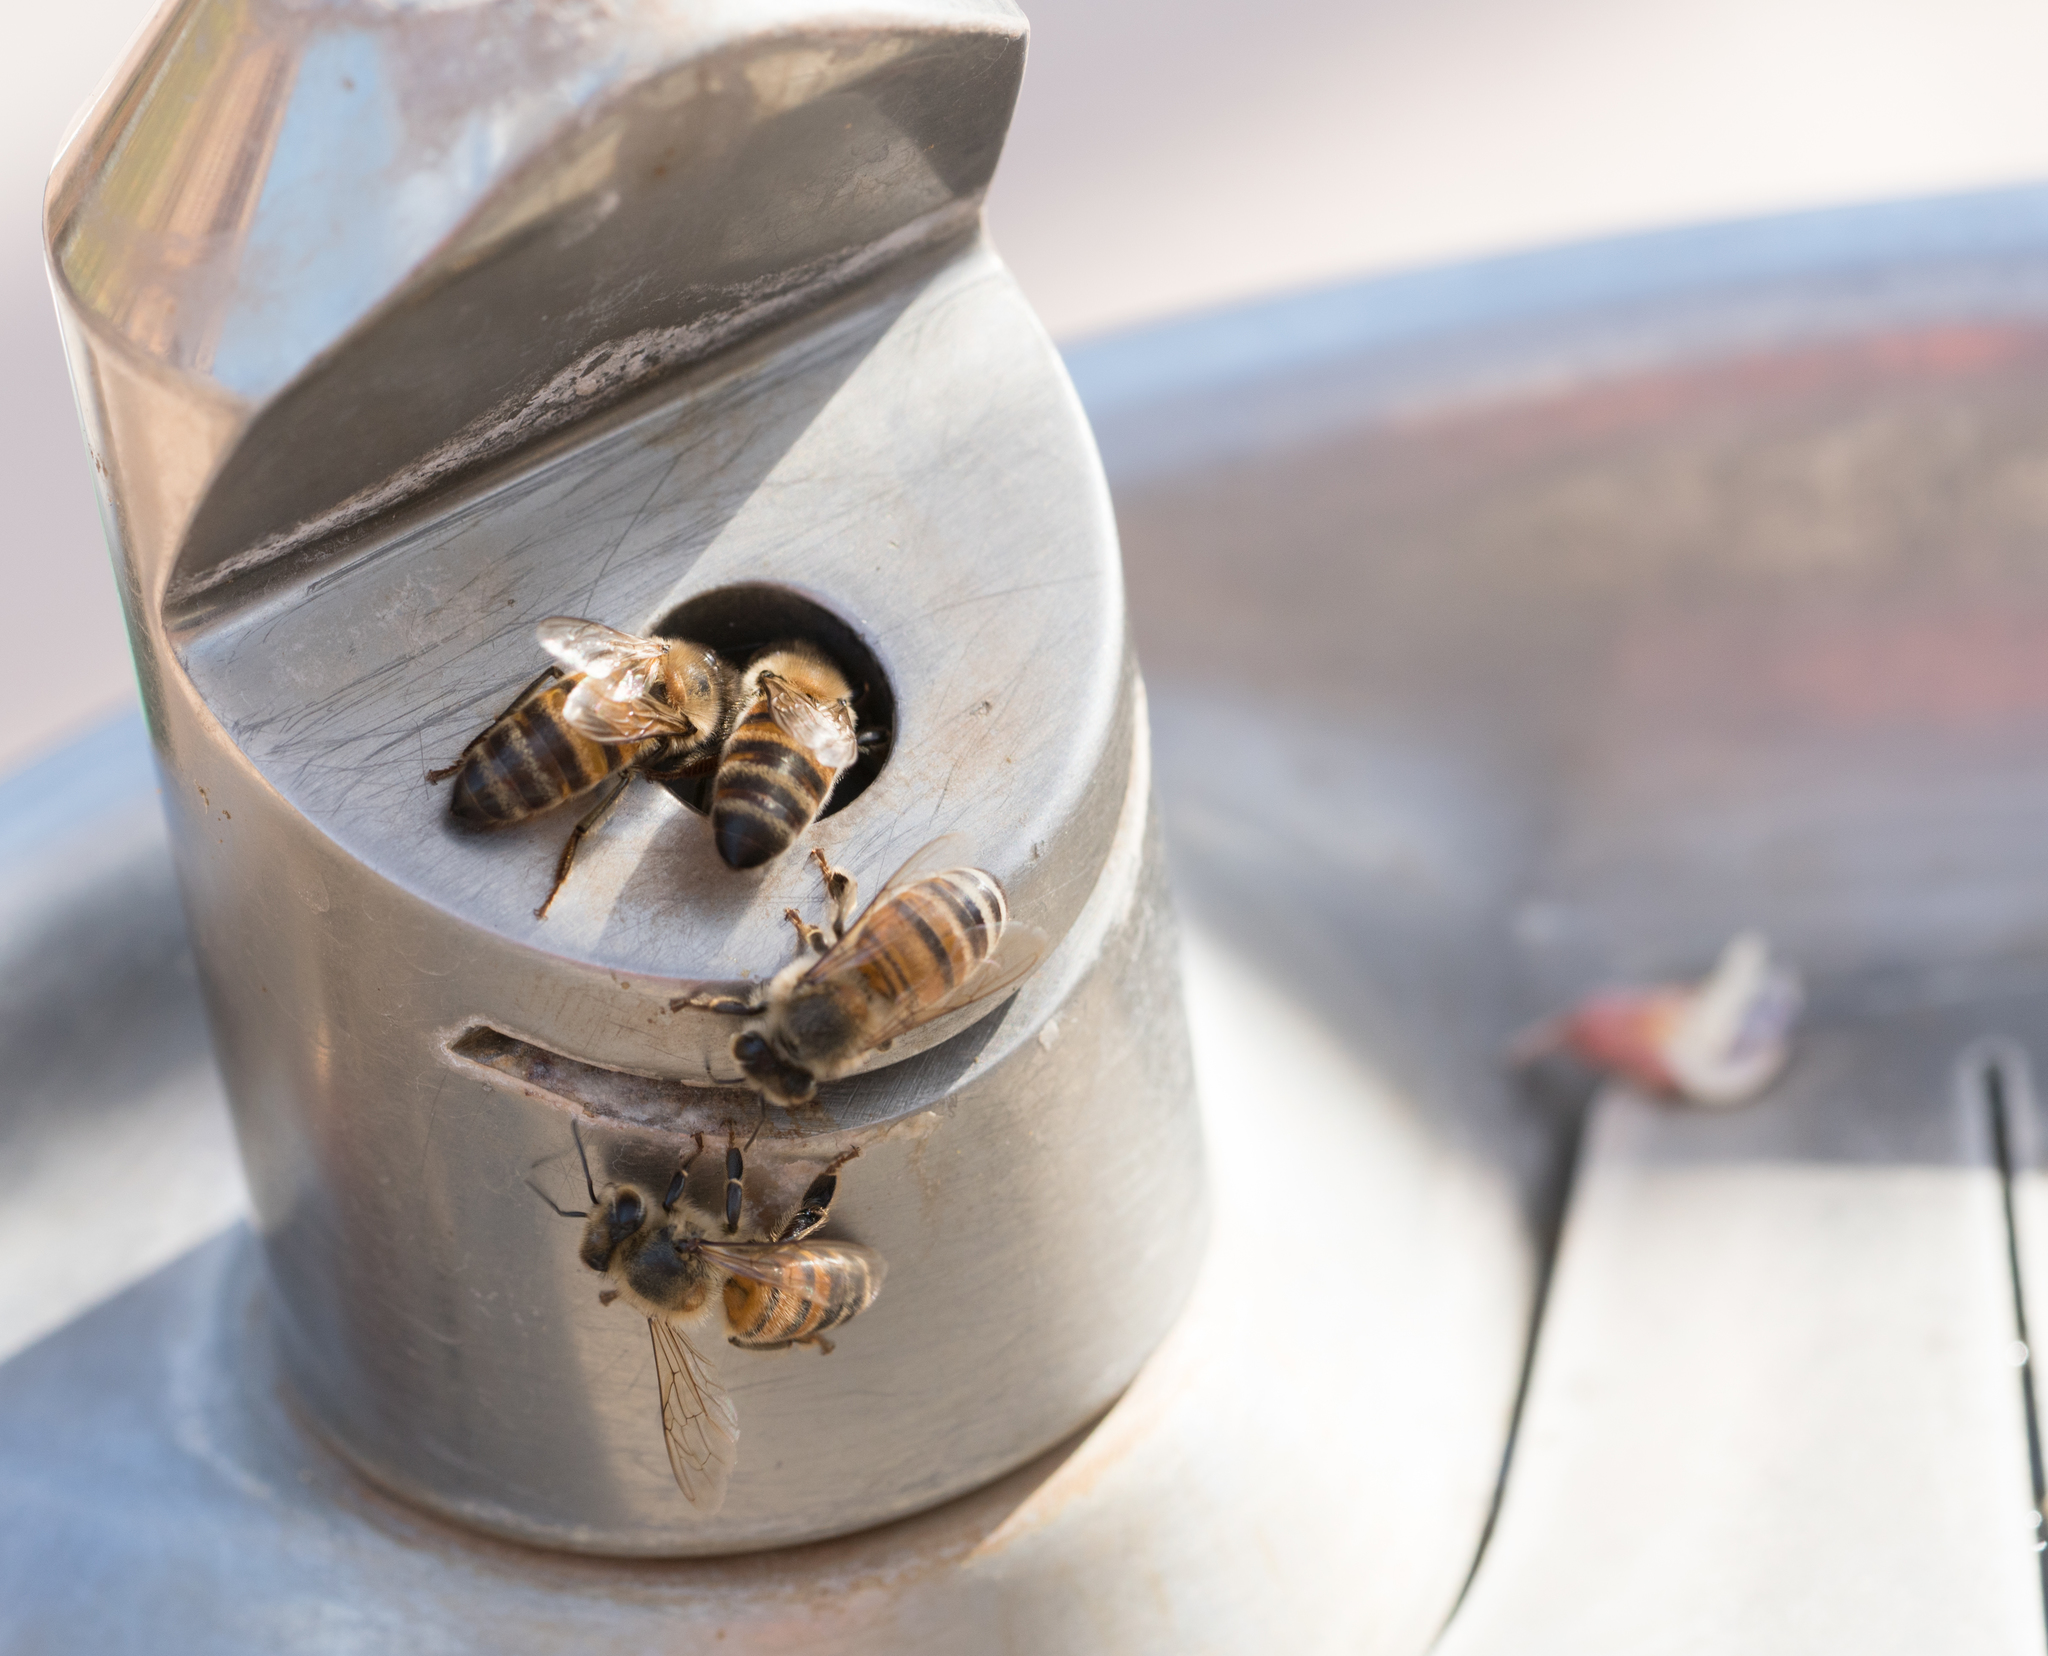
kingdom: Animalia
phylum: Arthropoda
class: Insecta
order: Hymenoptera
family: Apidae
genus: Apis
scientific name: Apis mellifera
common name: Honey bee
